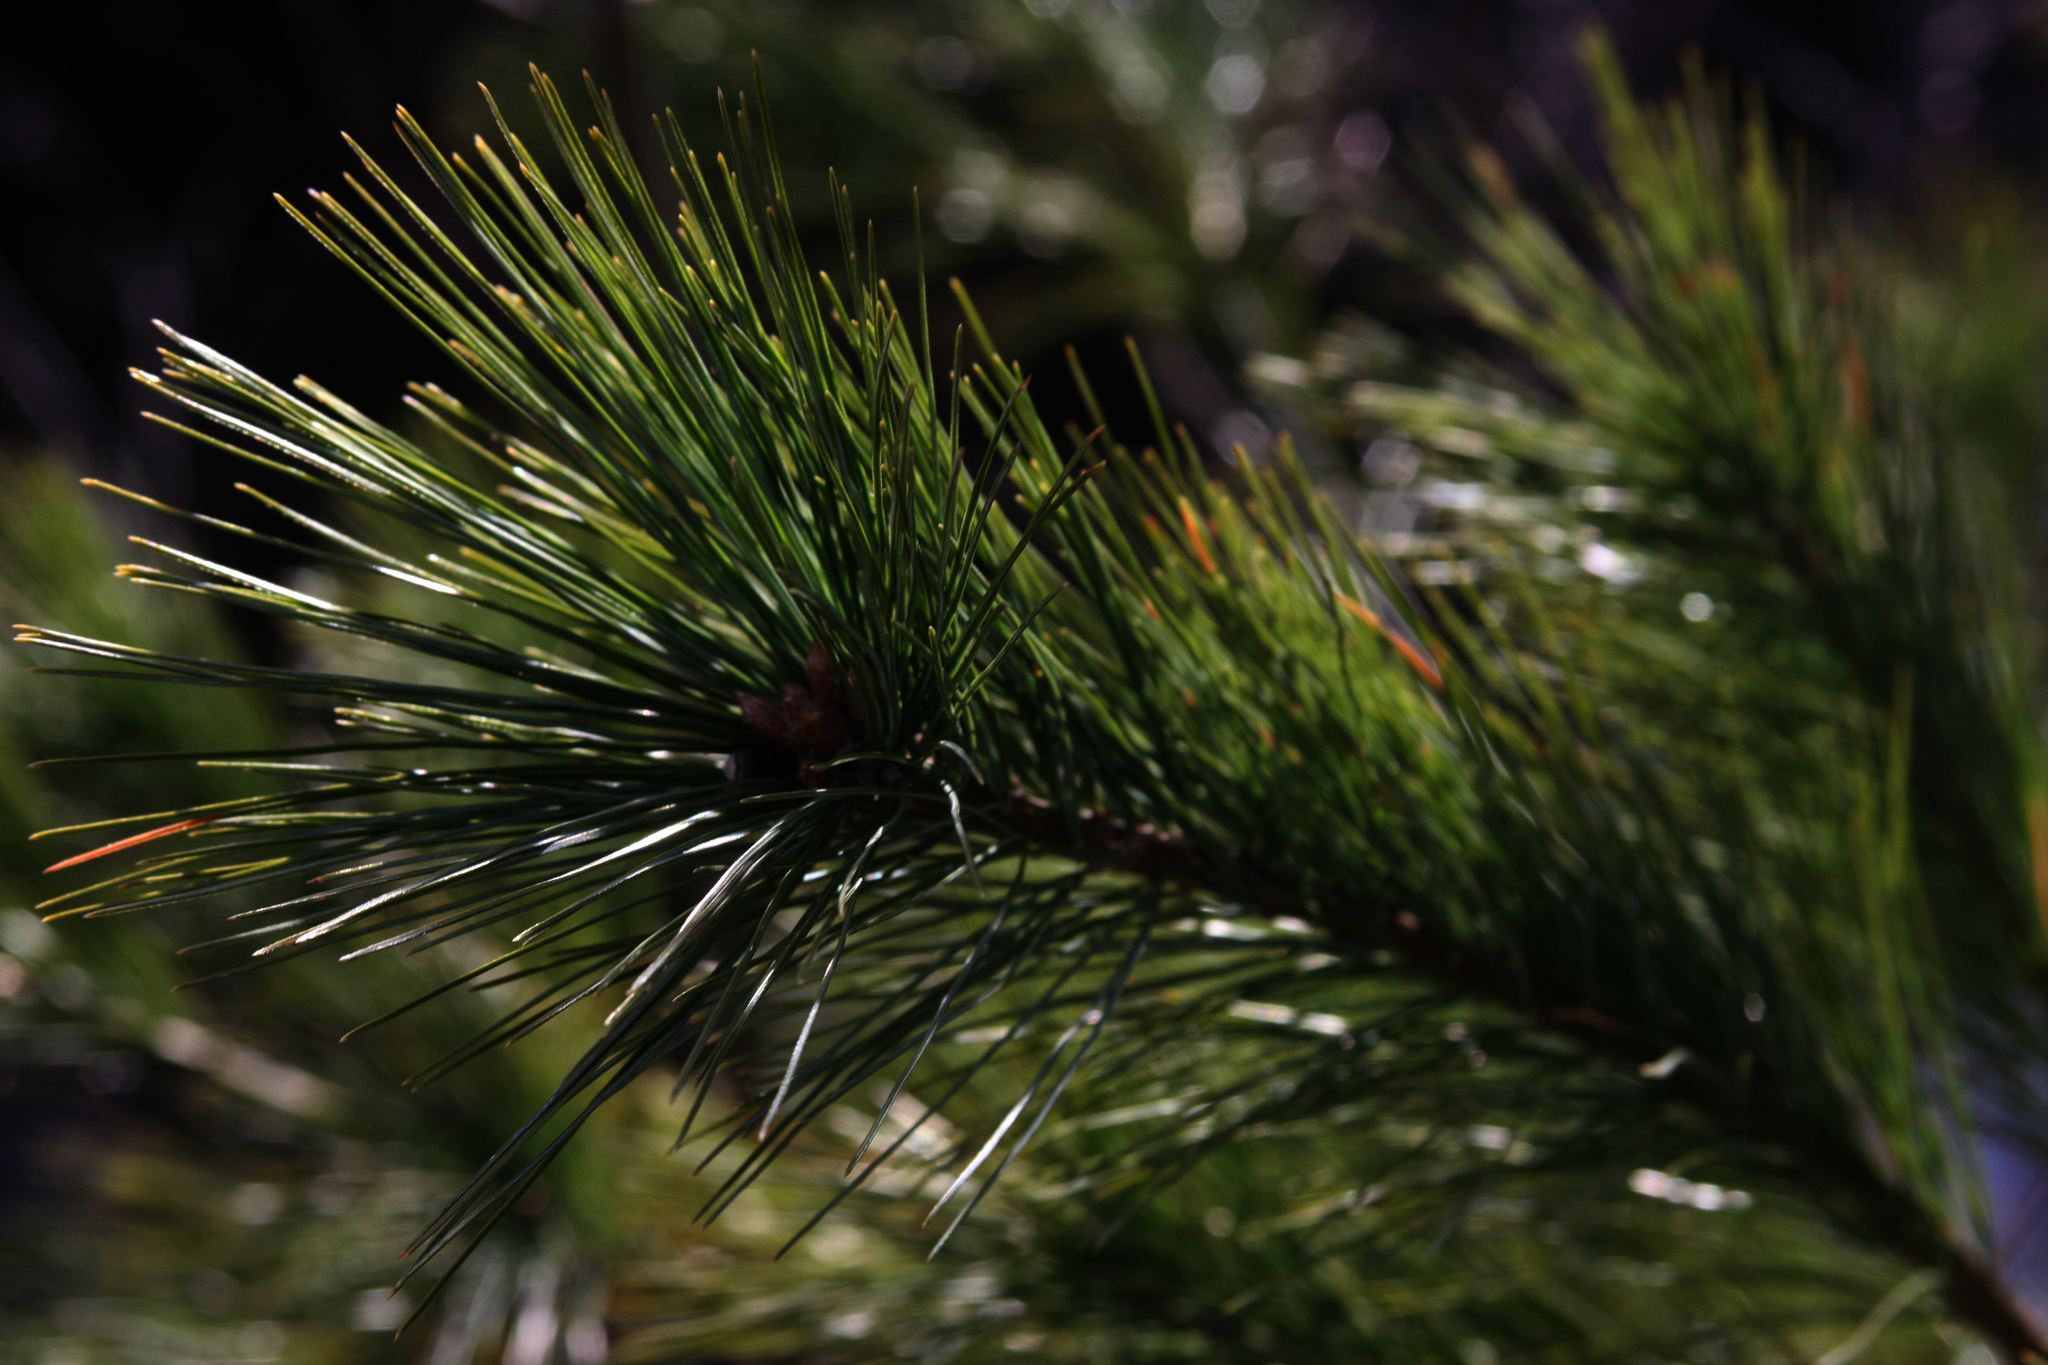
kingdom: Plantae
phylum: Tracheophyta
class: Pinopsida
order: Pinales
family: Pinaceae
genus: Pinus
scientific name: Pinus strobus
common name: Weymouth pine
